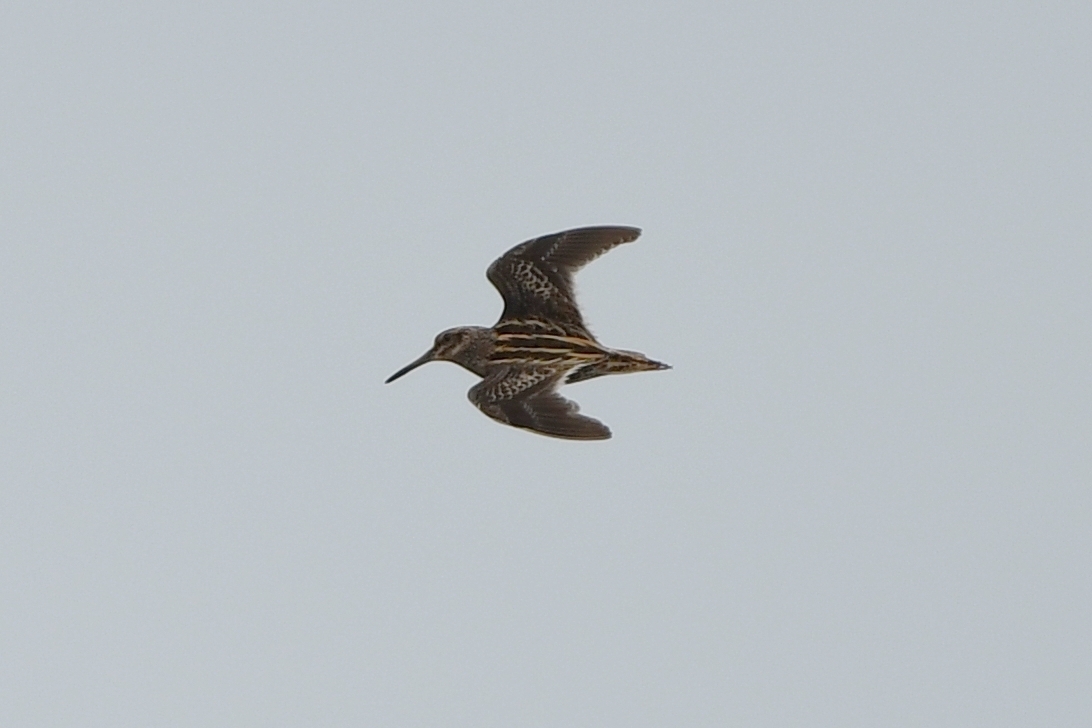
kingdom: Animalia
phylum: Chordata
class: Aves
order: Charadriiformes
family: Scolopacidae
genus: Lymnocryptes
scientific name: Lymnocryptes minimus
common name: Jack snipe
